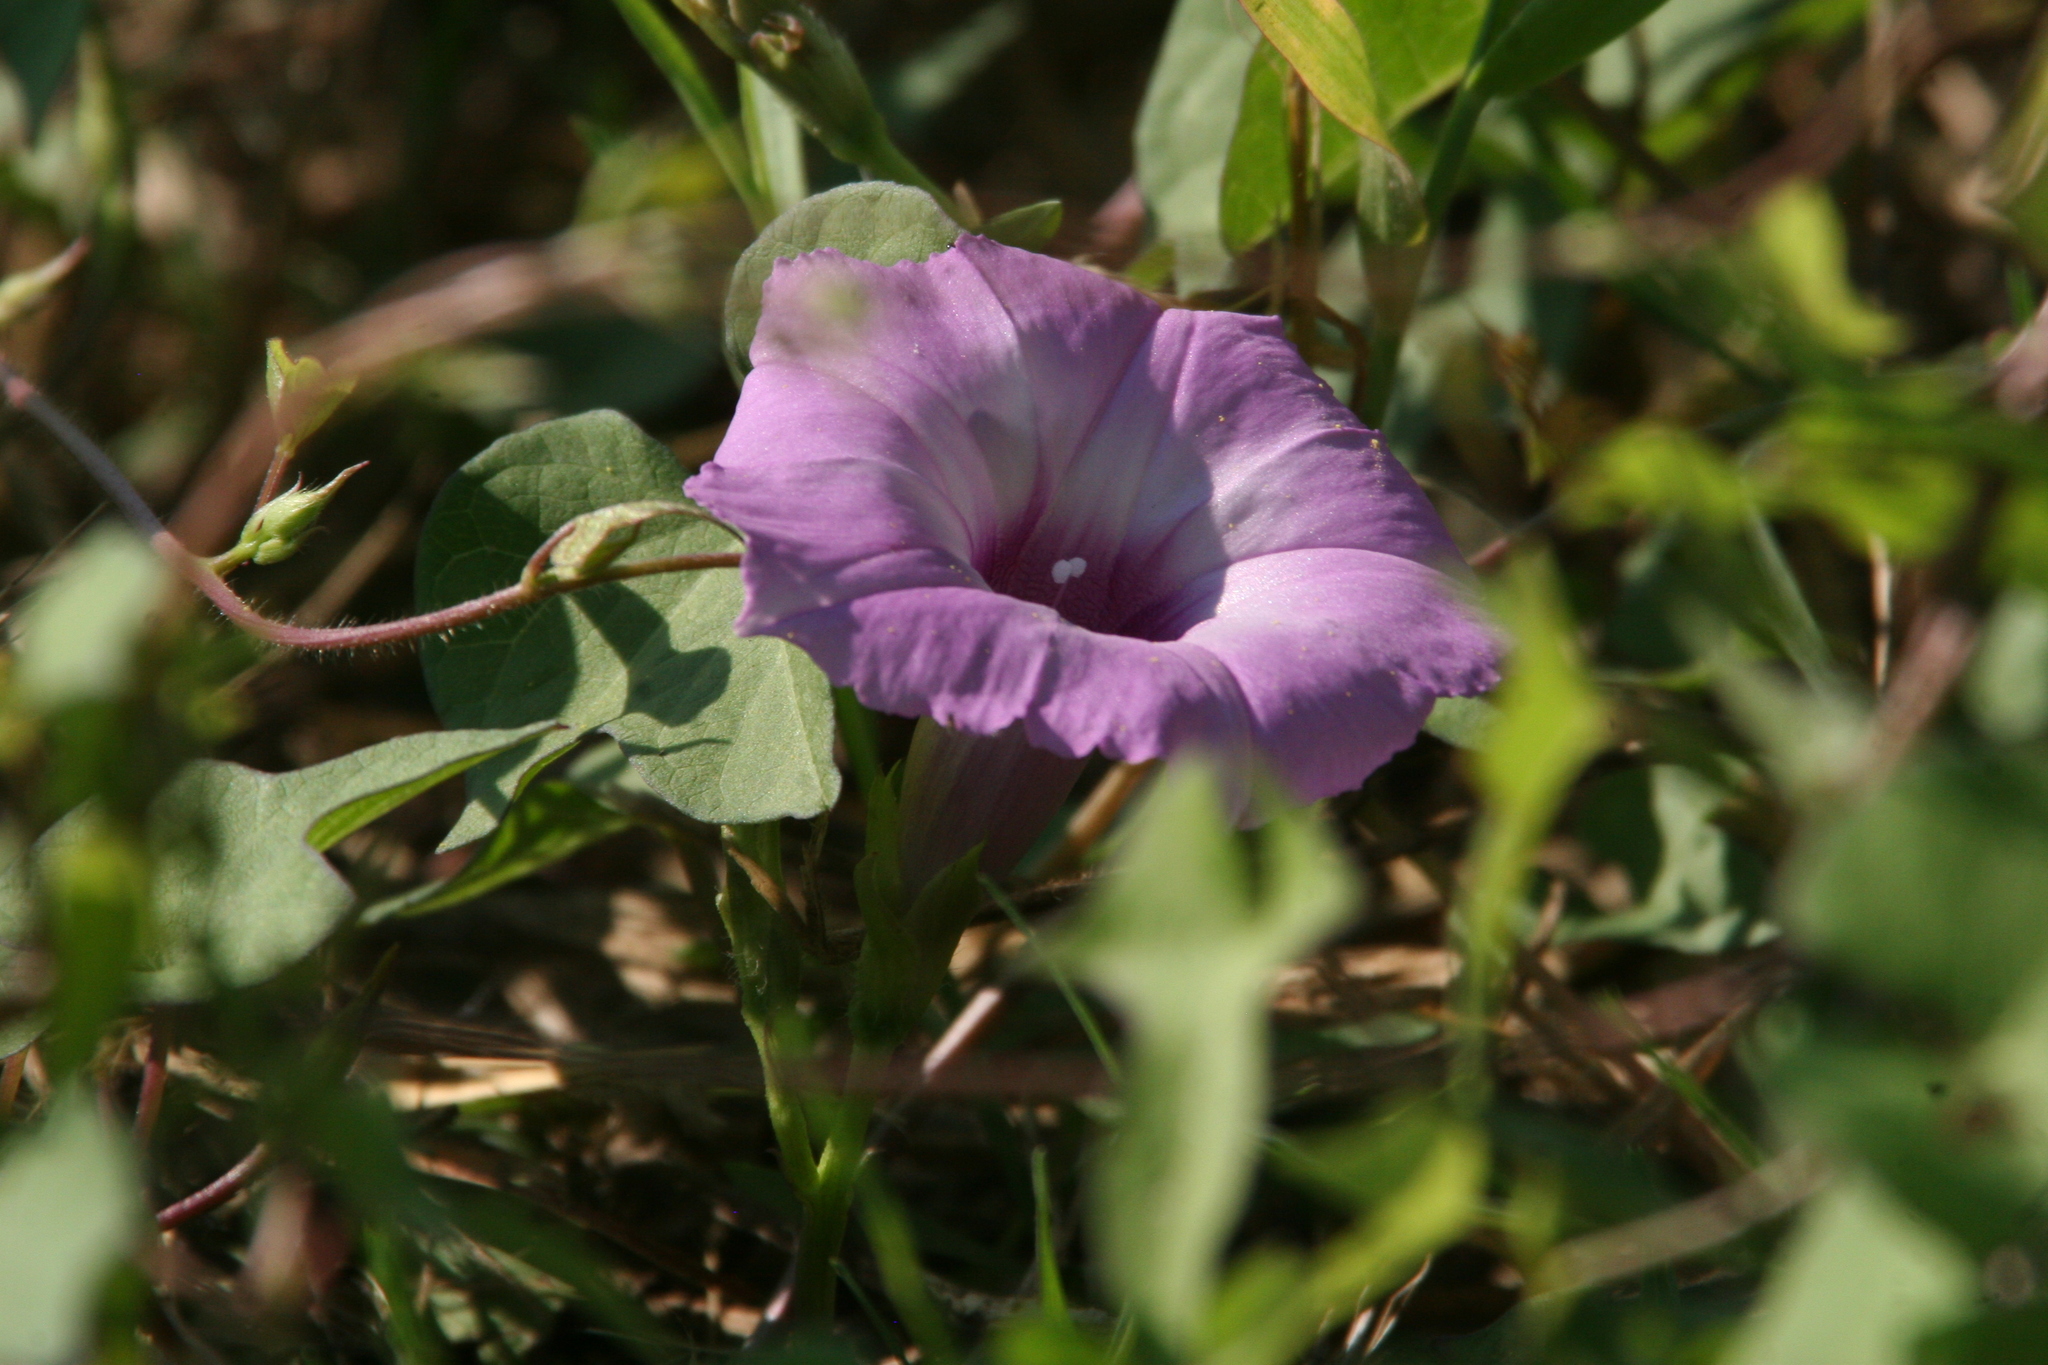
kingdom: Plantae
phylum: Tracheophyta
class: Magnoliopsida
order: Solanales
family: Convolvulaceae
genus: Ipomoea
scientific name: Ipomoea cordatotriloba
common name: Cotton morning glory
